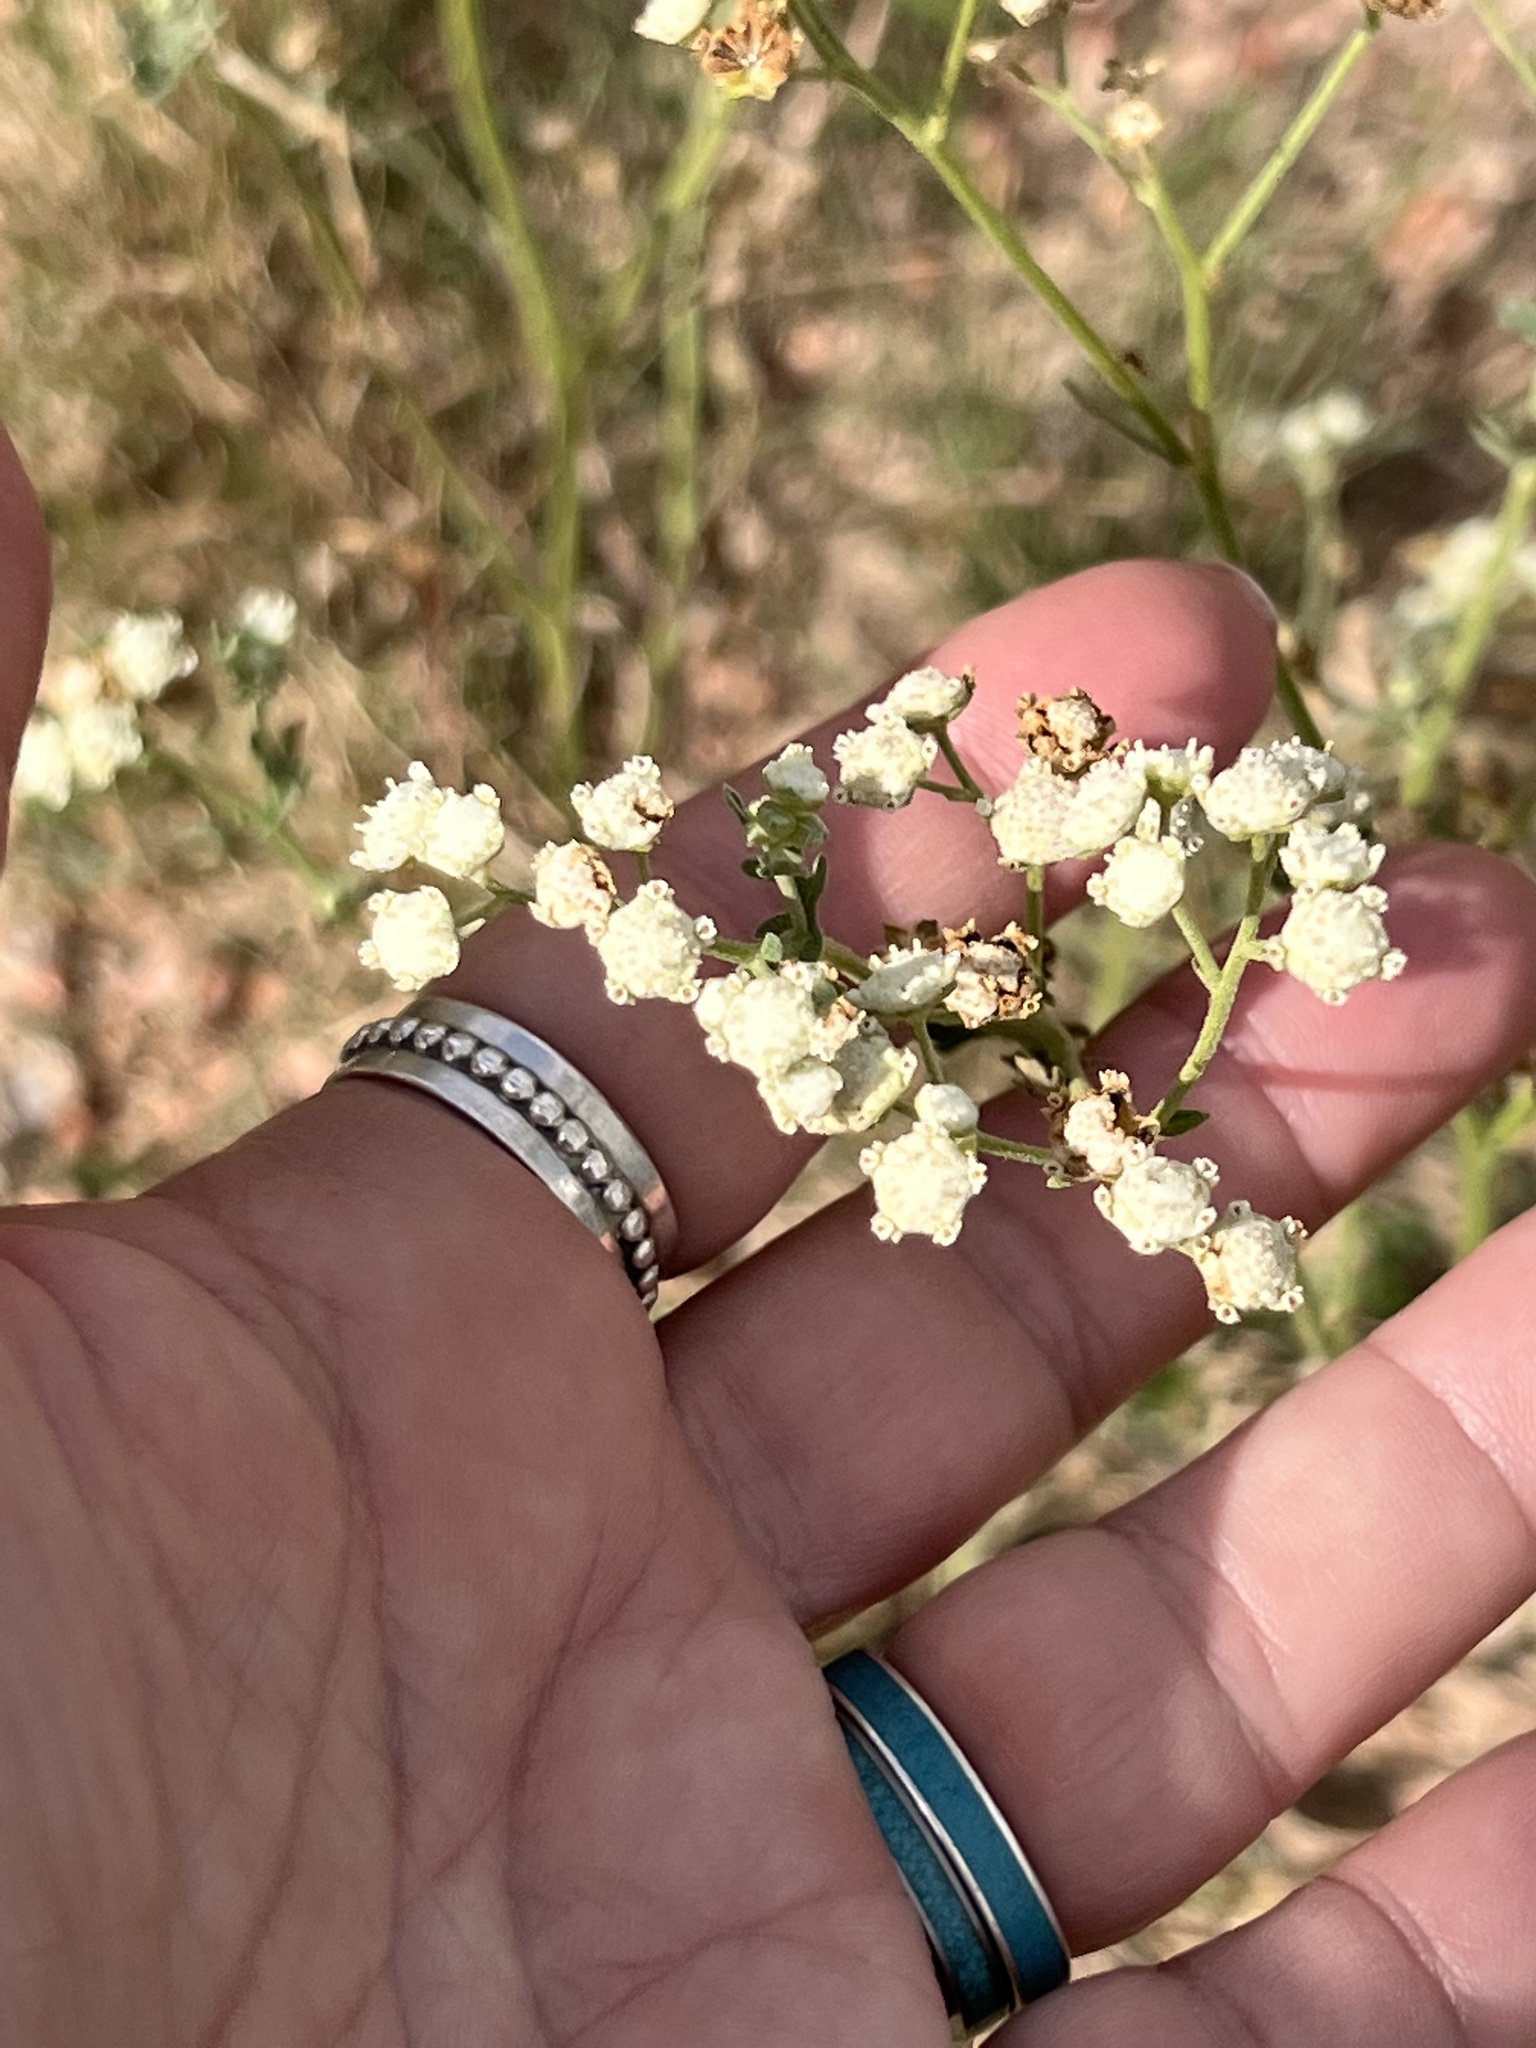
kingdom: Plantae
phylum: Tracheophyta
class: Magnoliopsida
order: Asterales
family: Asteraceae
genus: Parthenium
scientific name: Parthenium hysterophorus
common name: Santa maria feverfew
